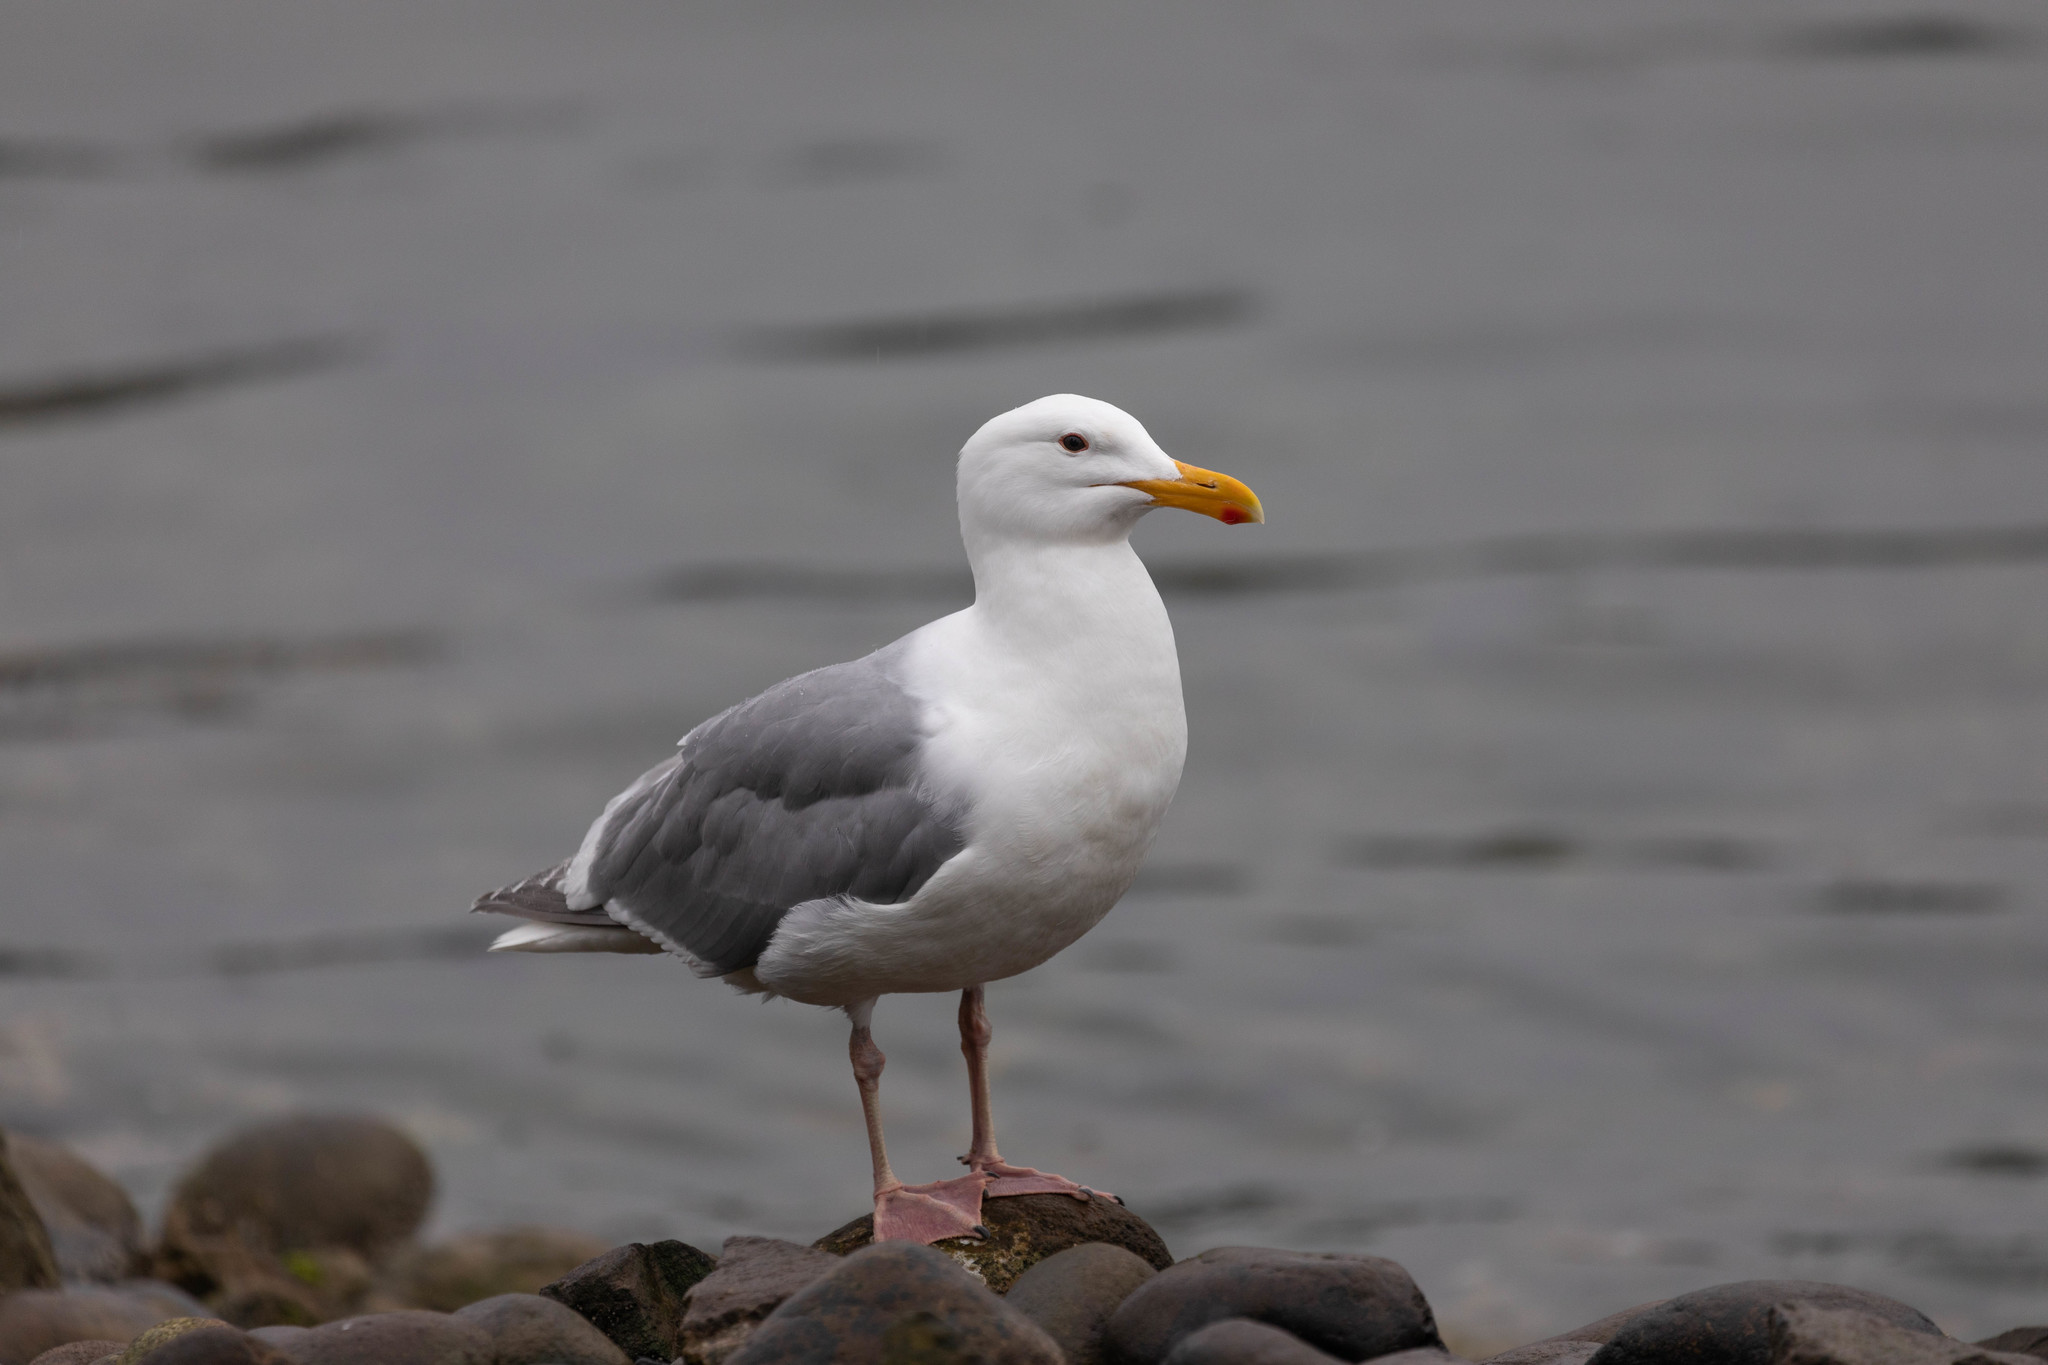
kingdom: Animalia
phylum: Chordata
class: Aves
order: Charadriiformes
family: Laridae
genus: Larus
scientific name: Larus glaucescens
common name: Glaucous-winged gull
